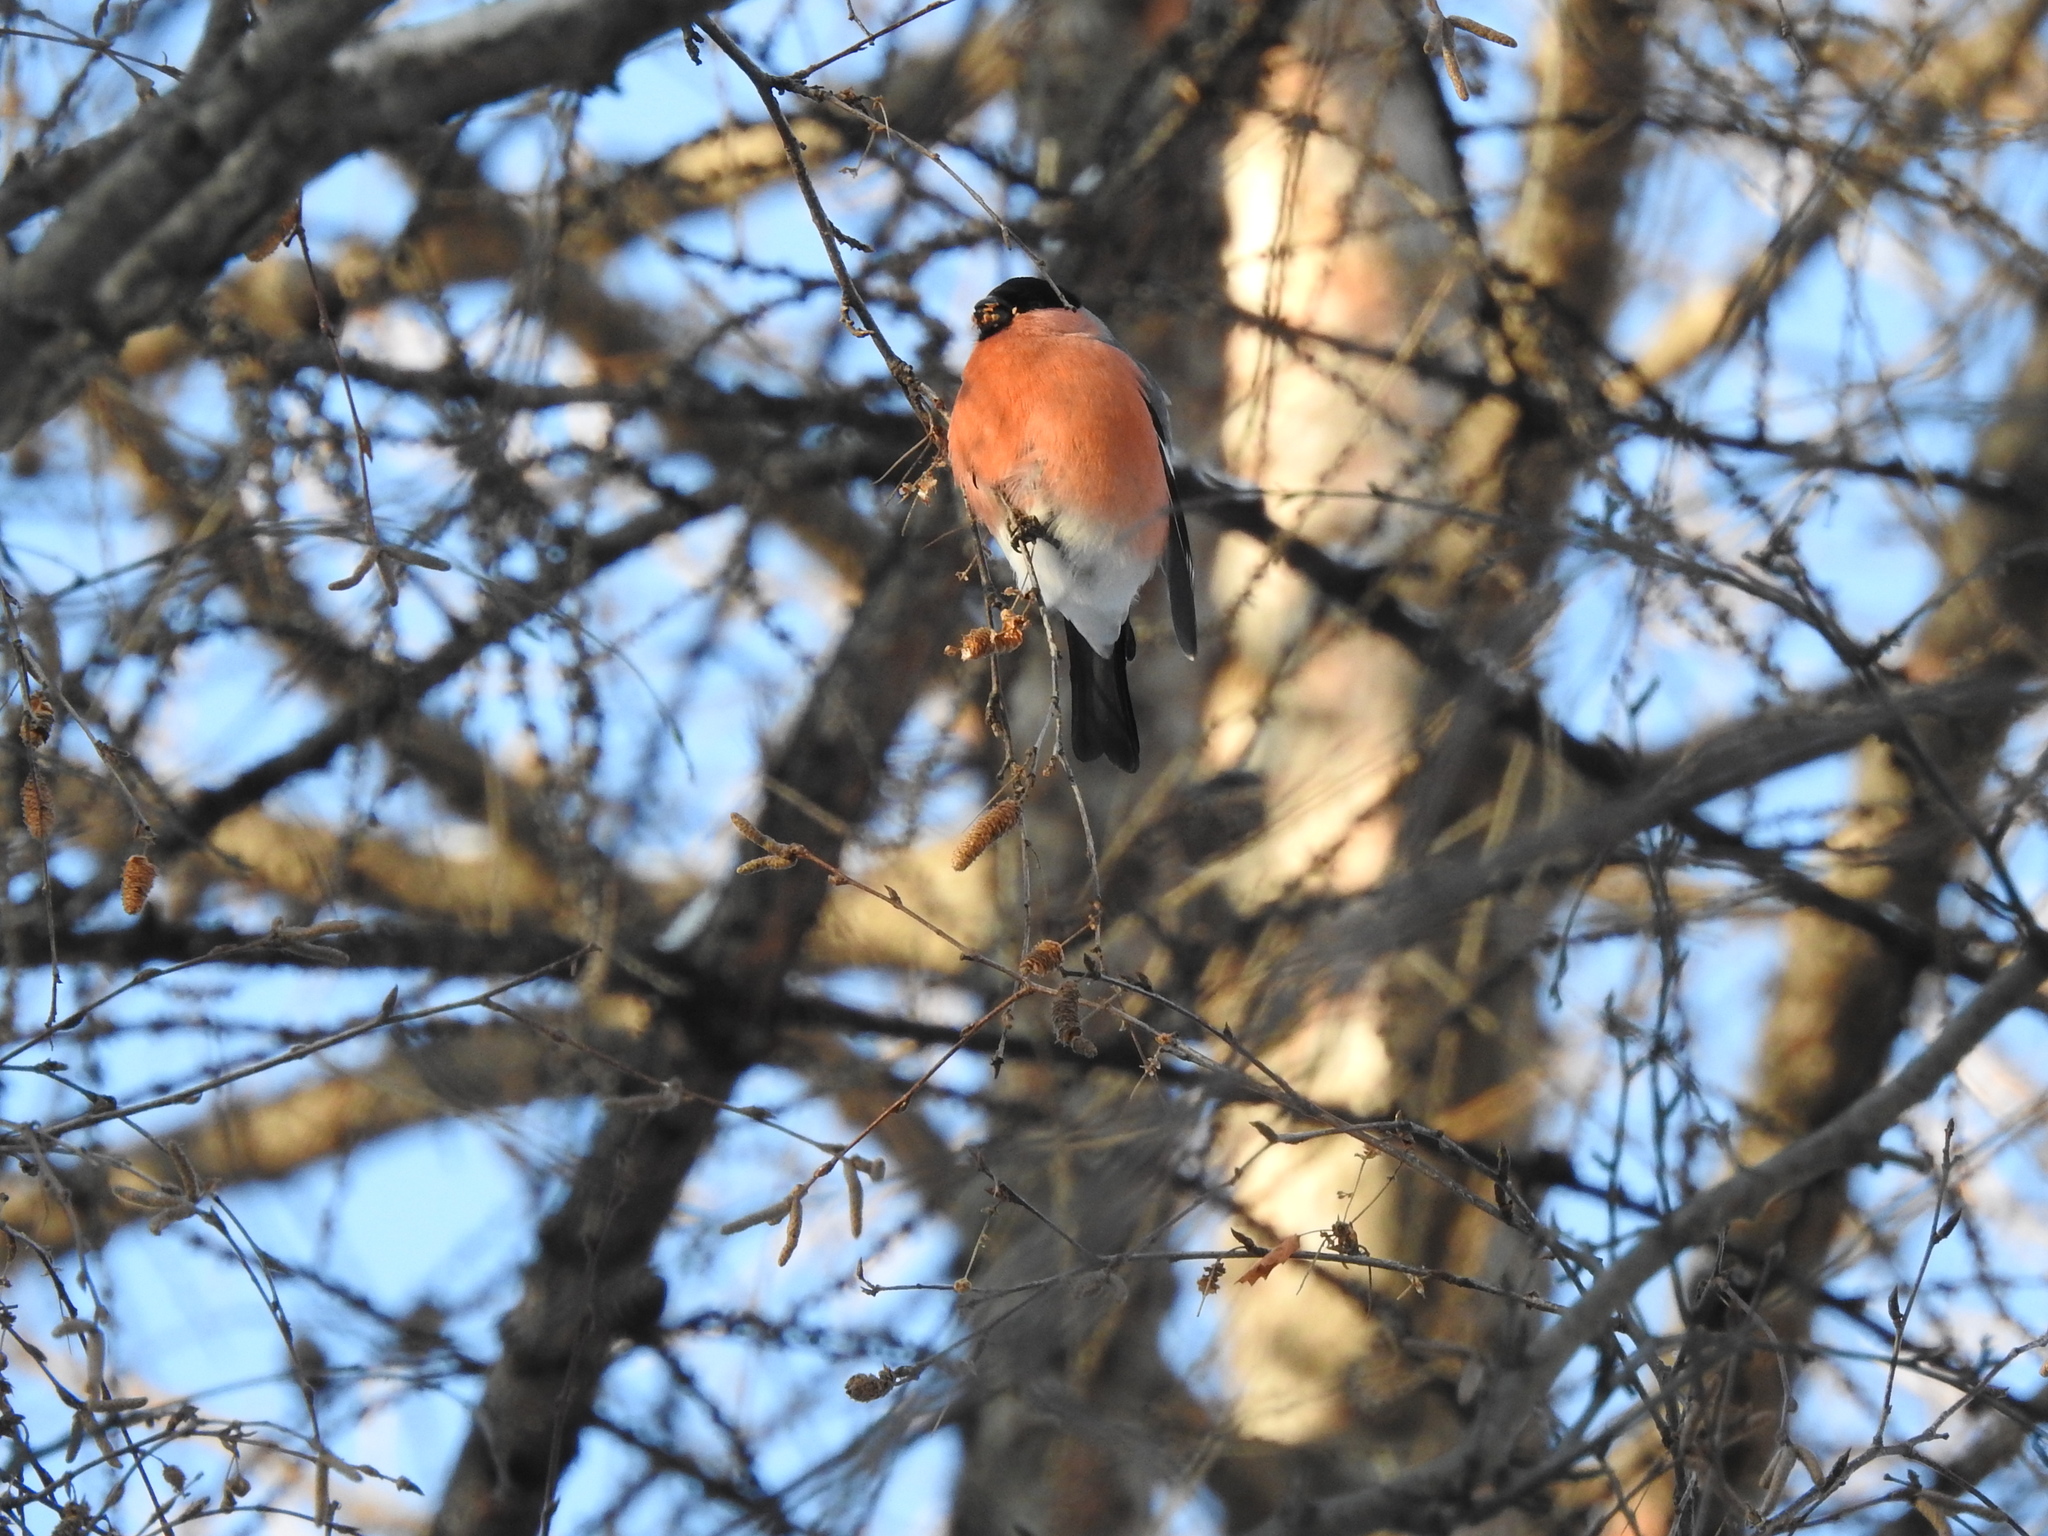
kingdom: Animalia
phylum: Chordata
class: Aves
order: Passeriformes
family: Fringillidae
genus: Pyrrhula
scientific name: Pyrrhula pyrrhula
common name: Eurasian bullfinch
